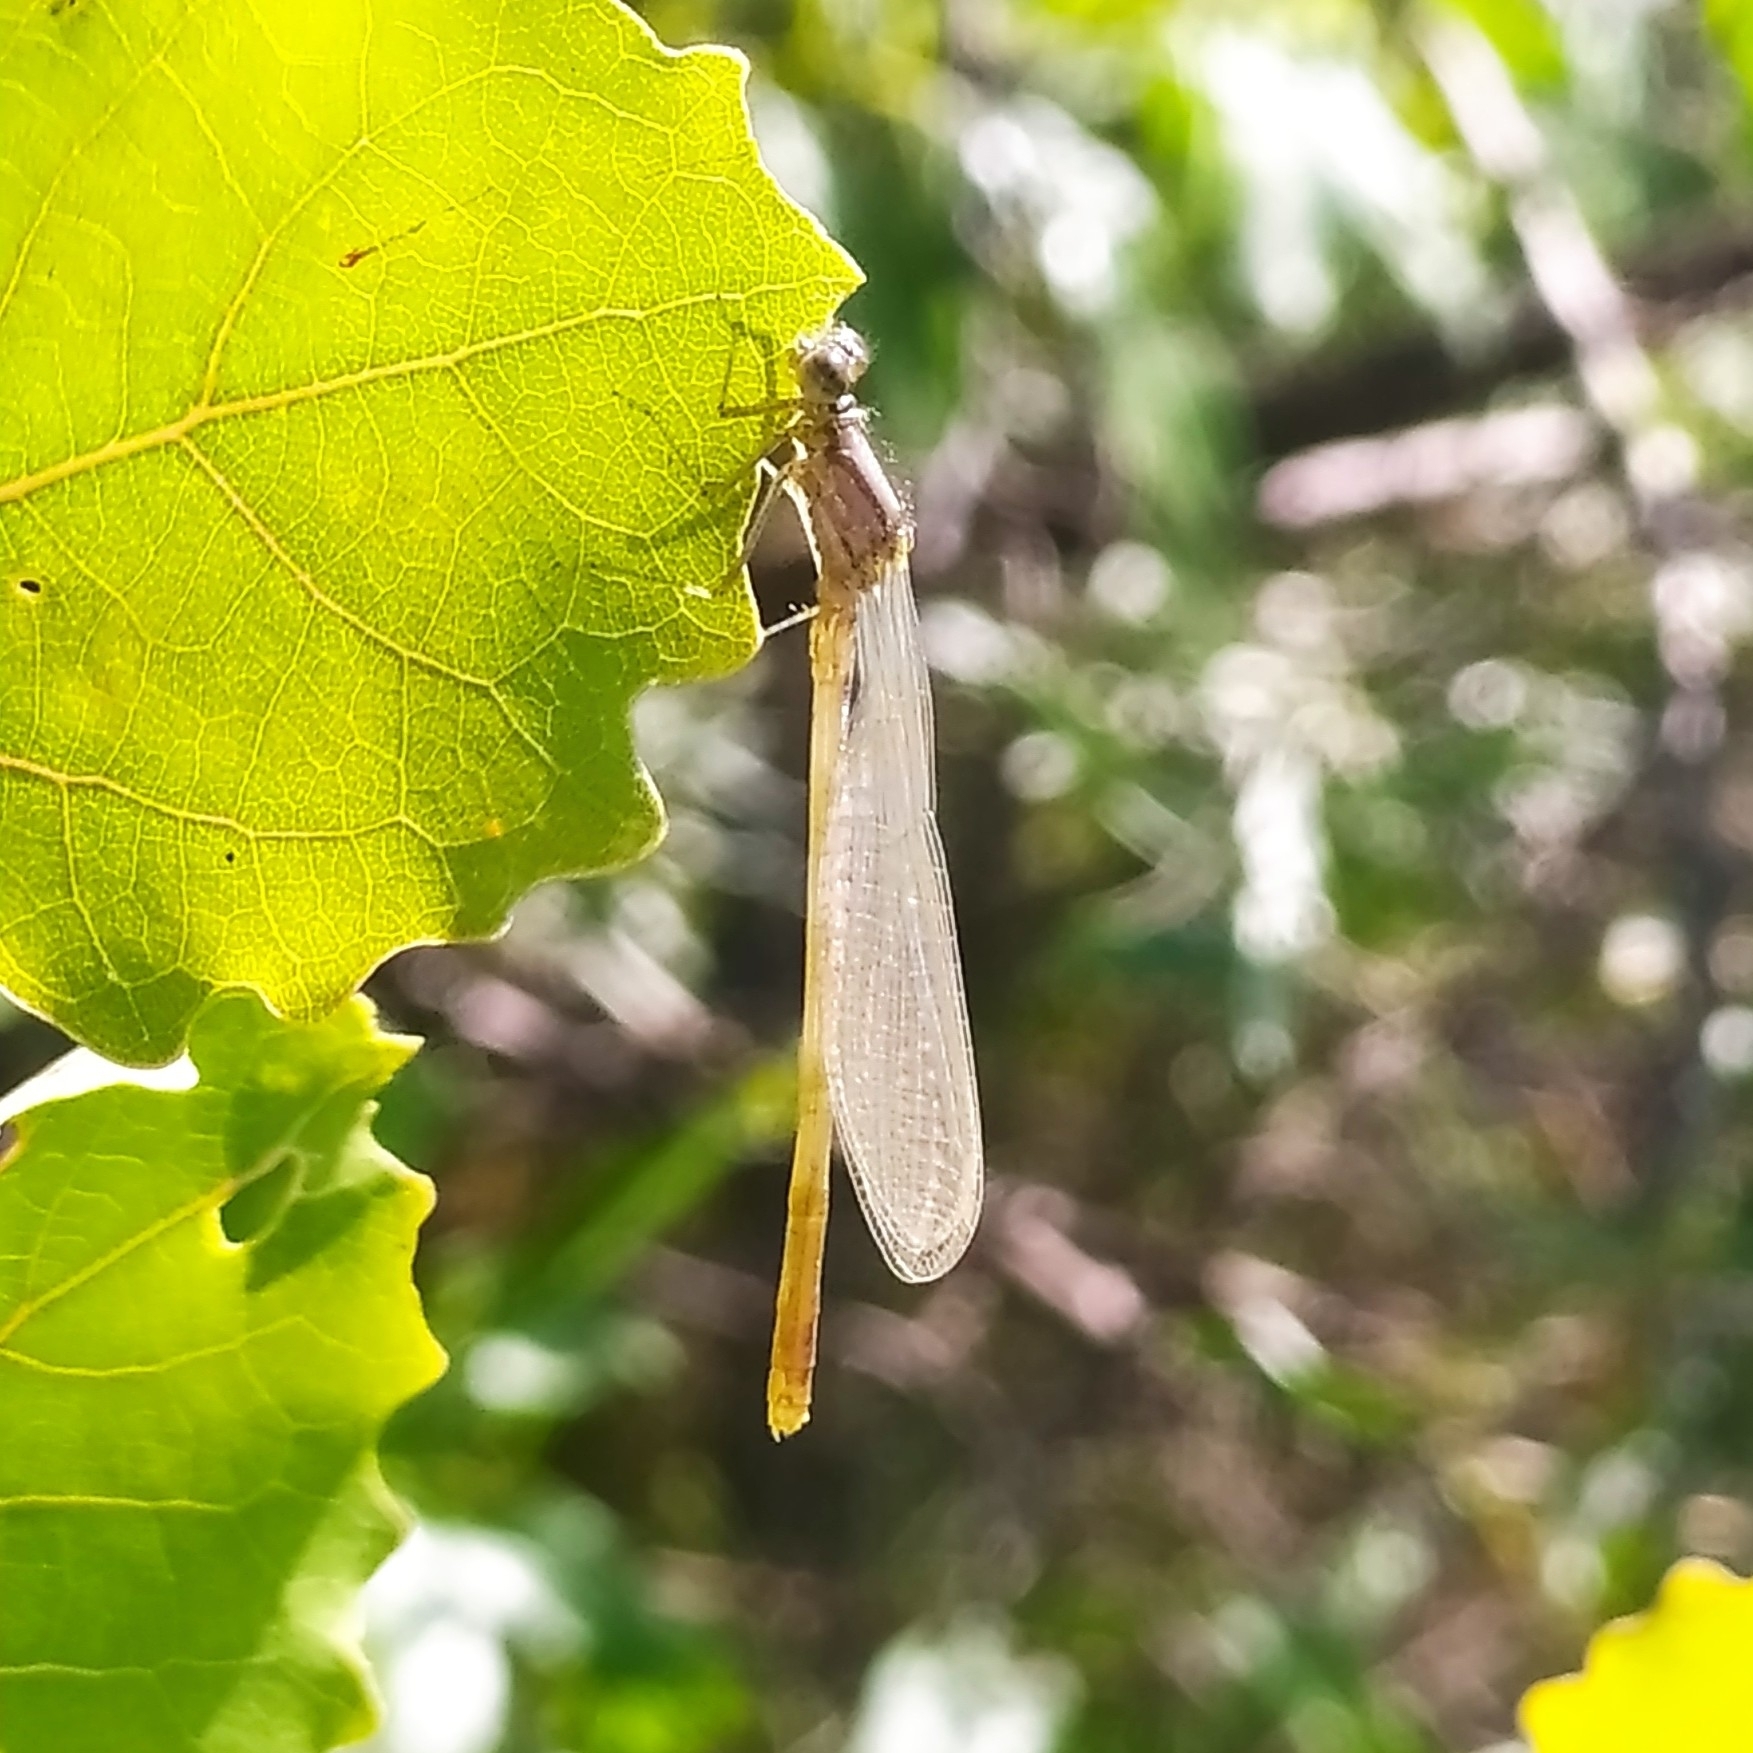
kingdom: Animalia
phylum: Arthropoda
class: Insecta
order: Odonata
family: Coenagrionidae
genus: Enallagma
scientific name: Enallagma cyathigerum
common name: Common blue damselfly
